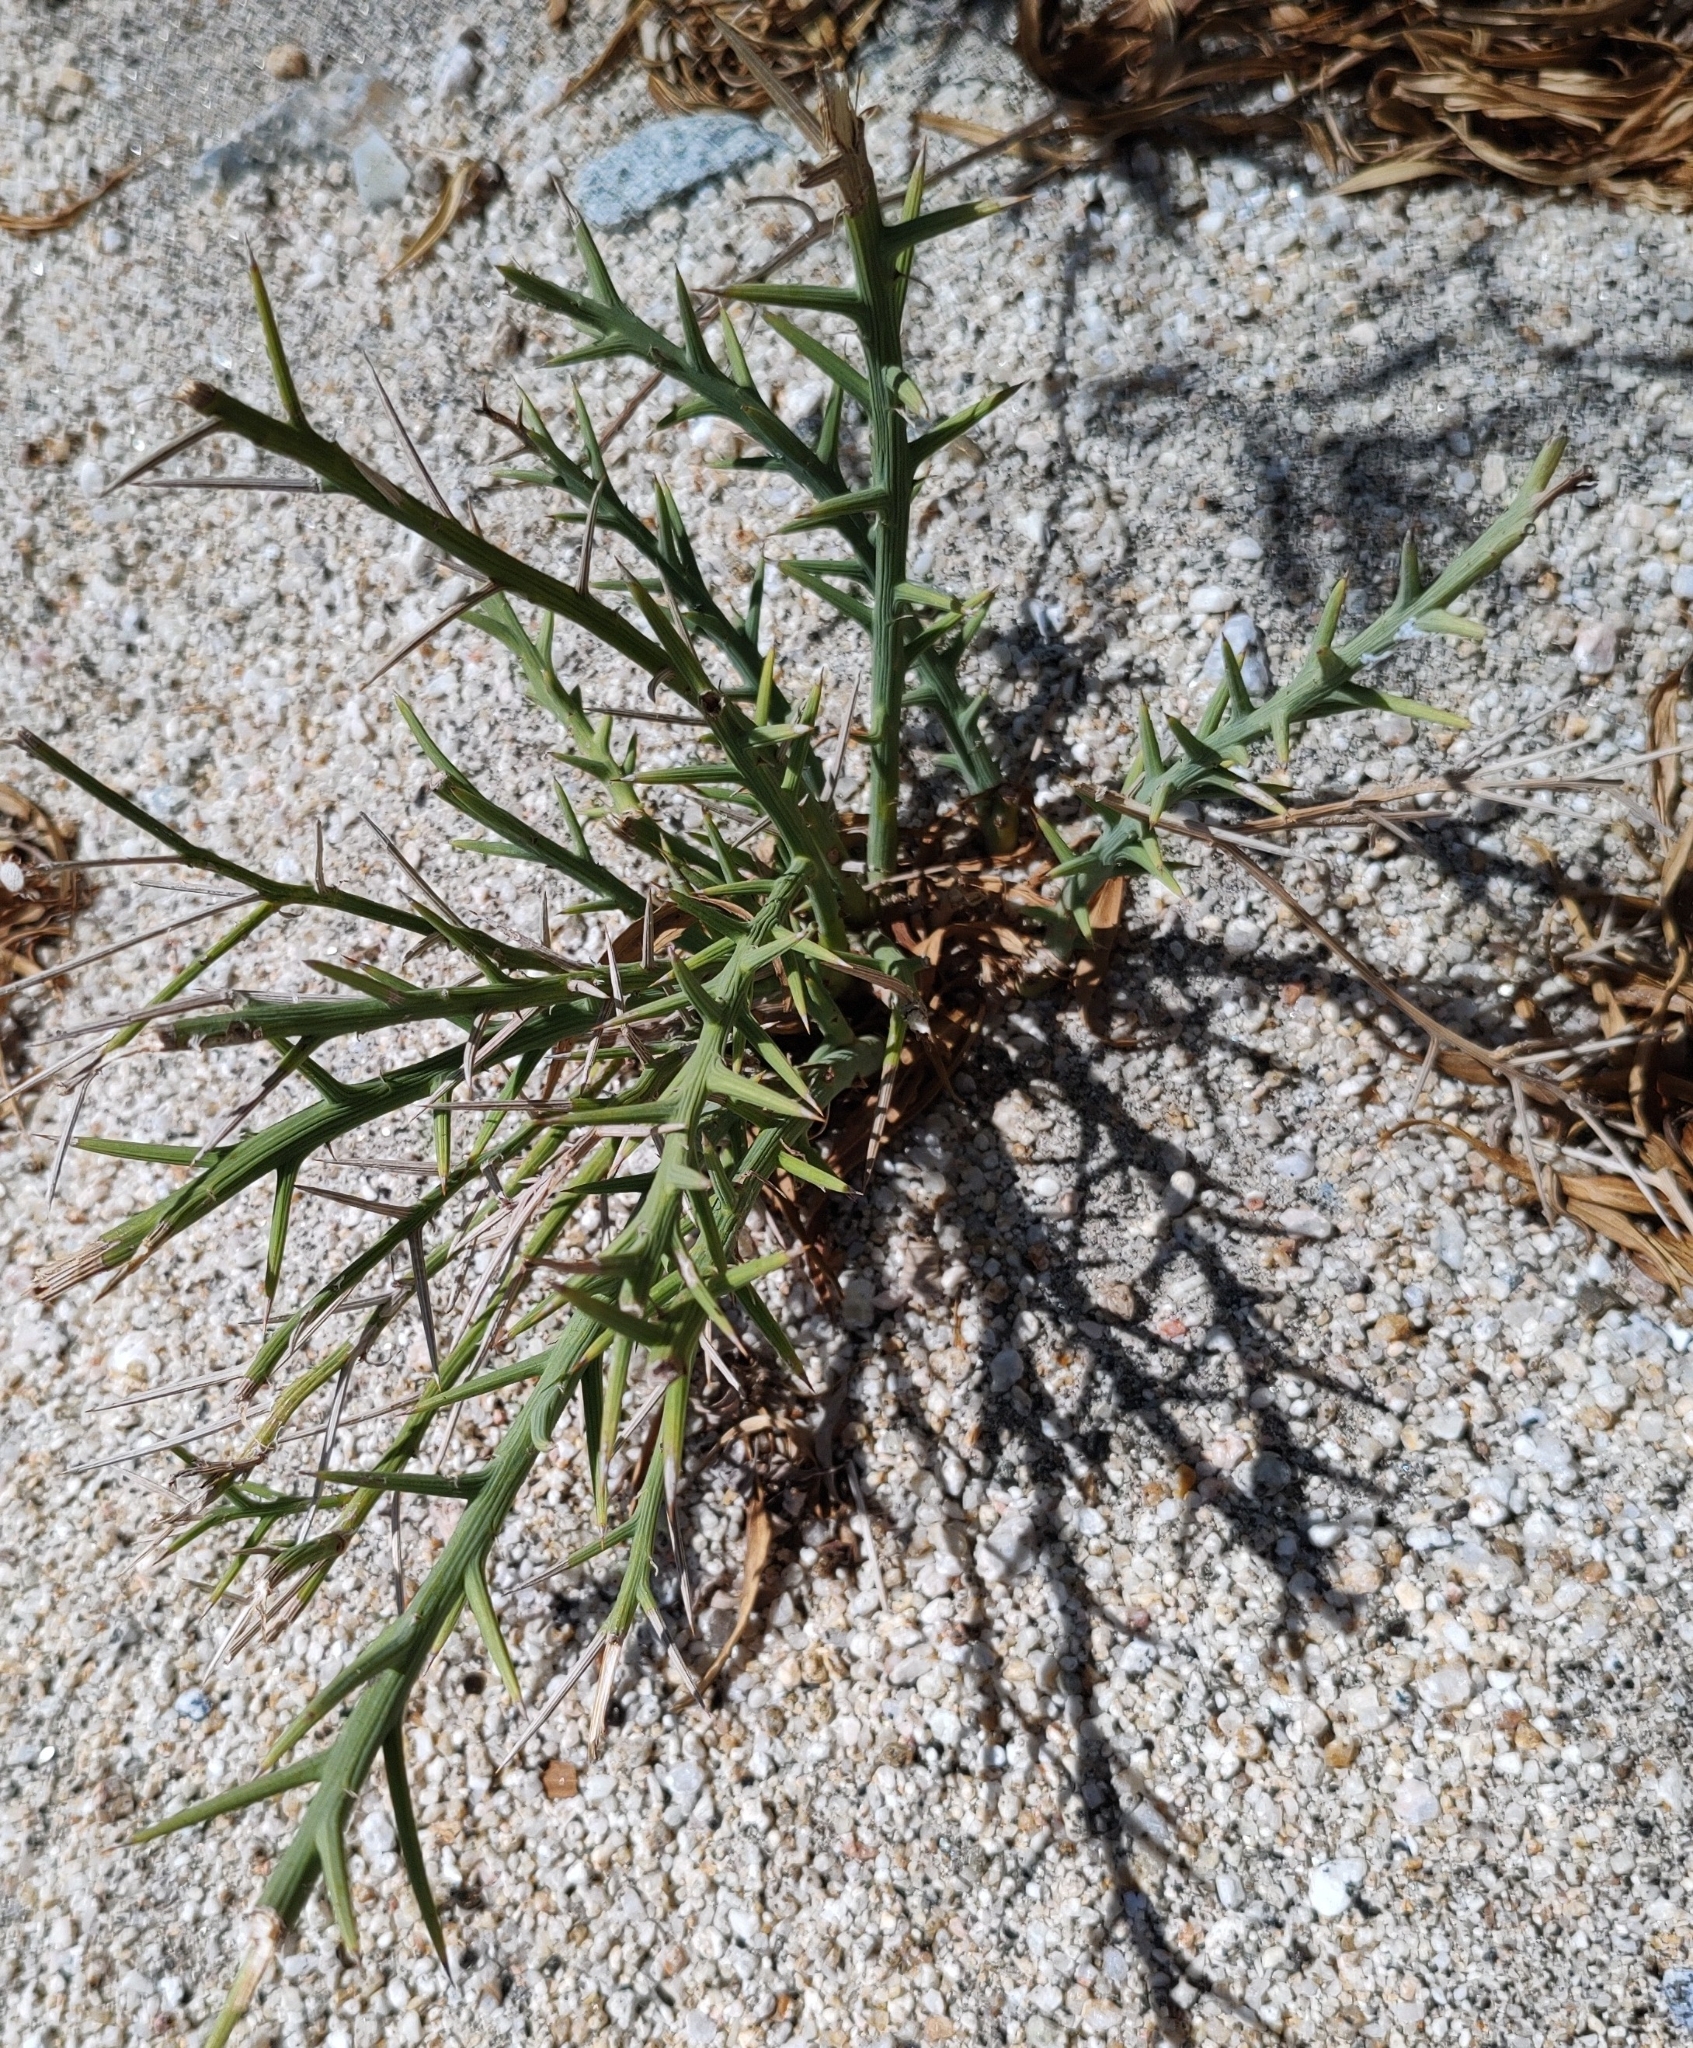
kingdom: Plantae
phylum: Tracheophyta
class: Magnoliopsida
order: Asterales
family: Asteraceae
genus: Chloracantha
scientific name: Chloracantha spinosissima
